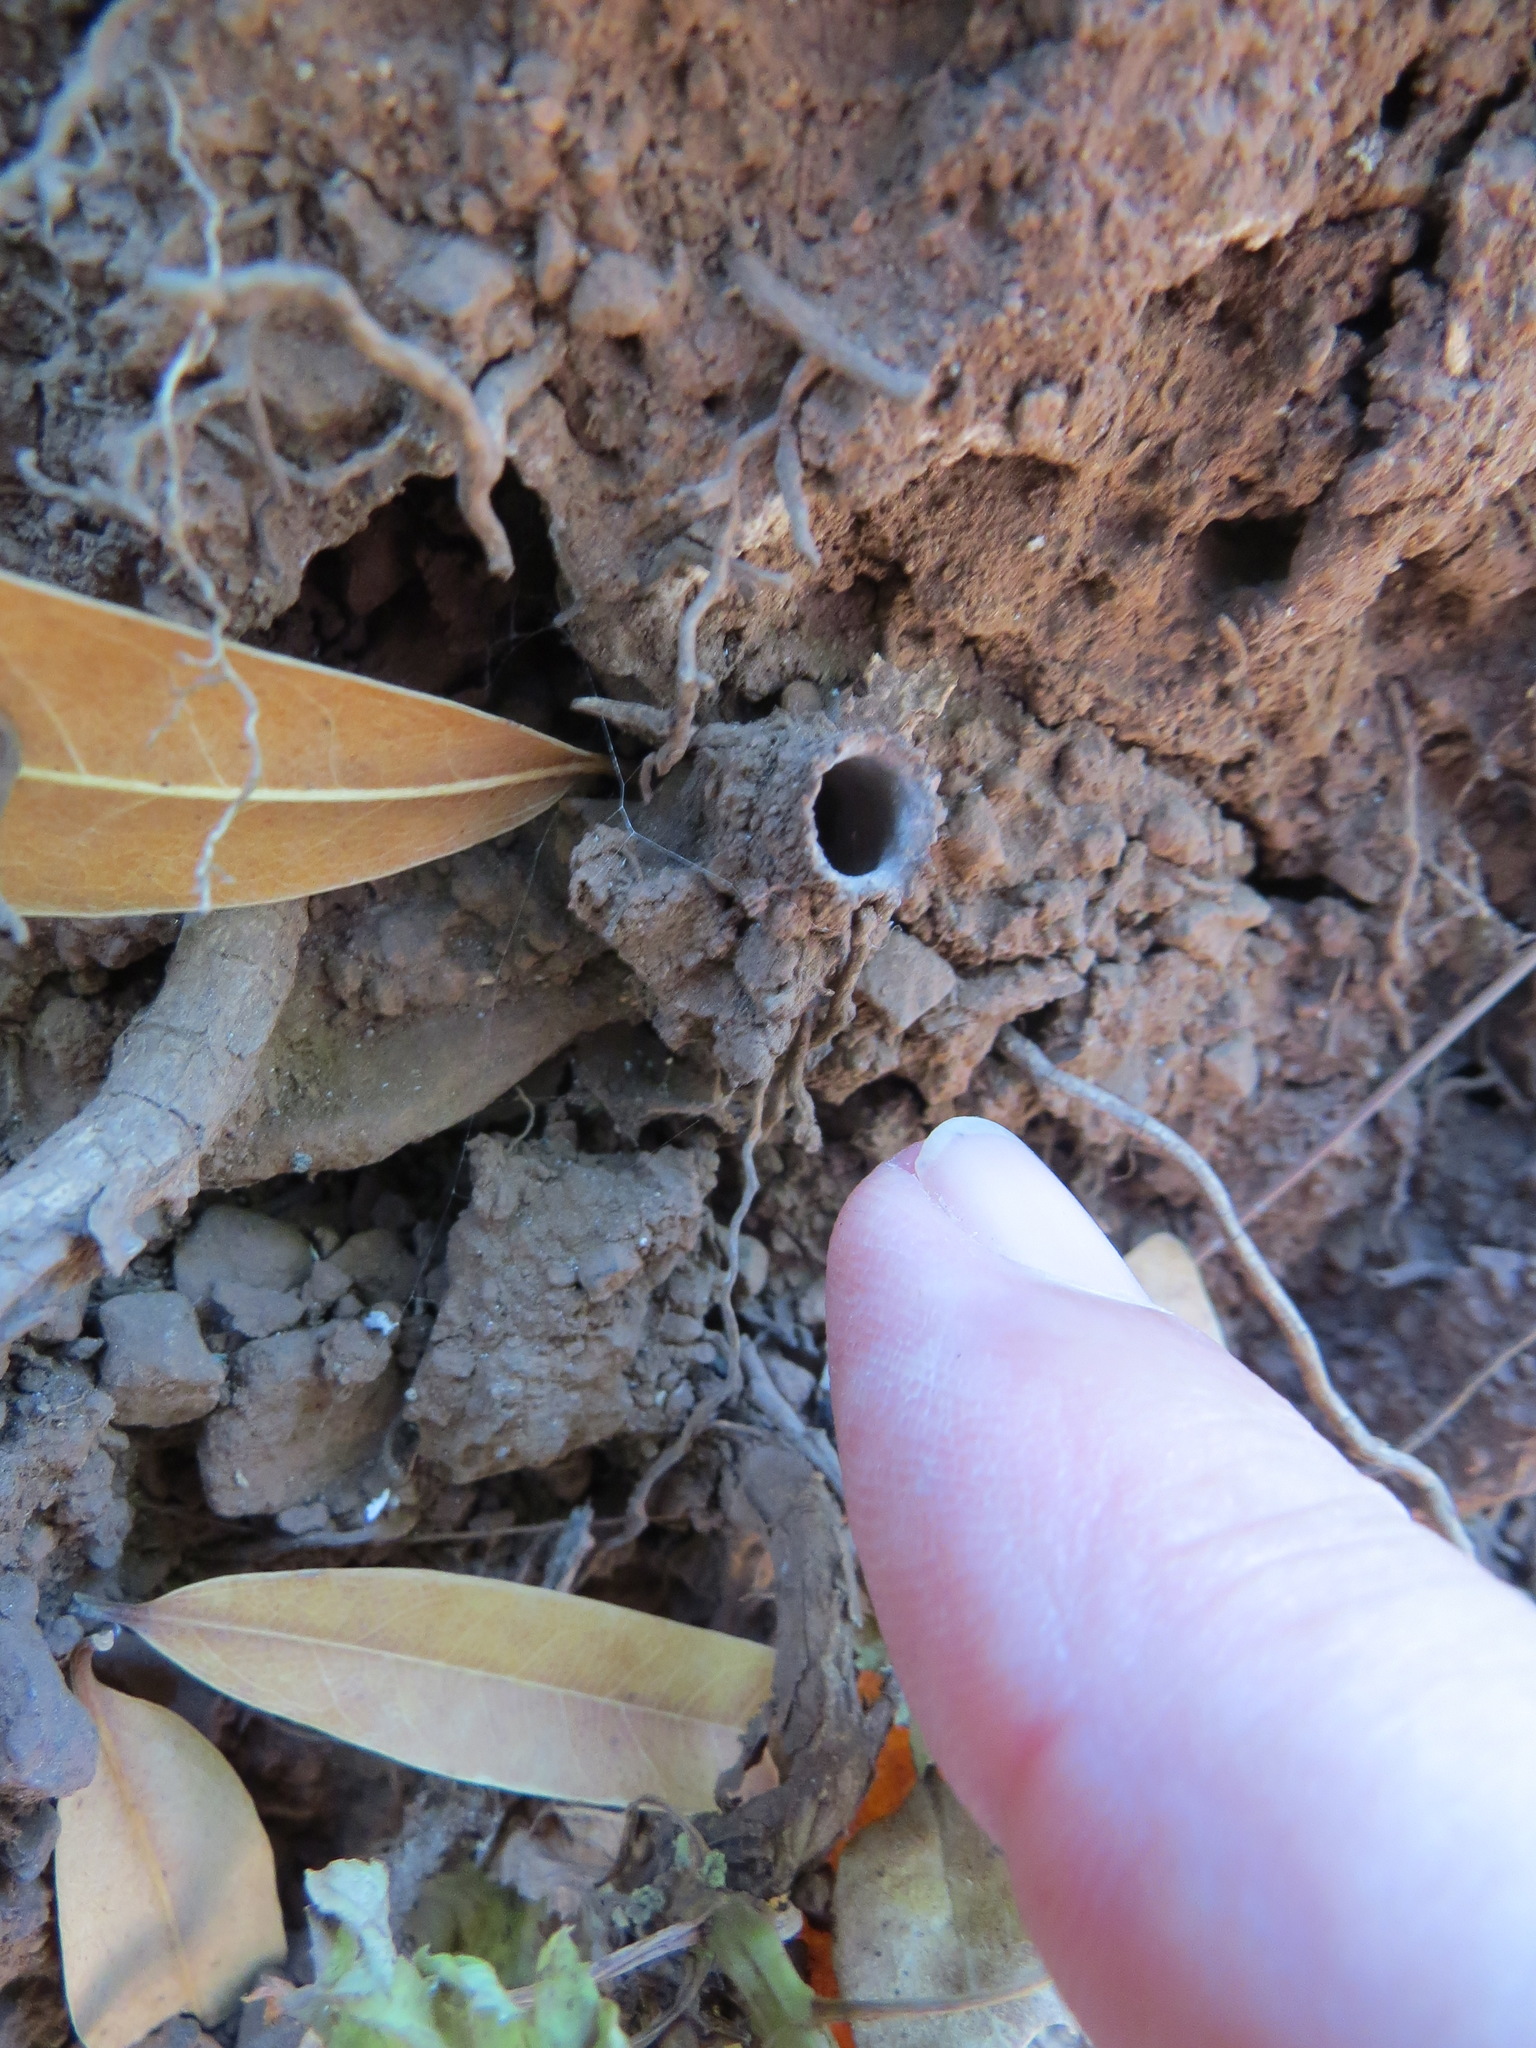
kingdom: Animalia
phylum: Arthropoda
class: Arachnida
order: Araneae
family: Antrodiaetidae
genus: Atypoides
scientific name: Atypoides riversi
